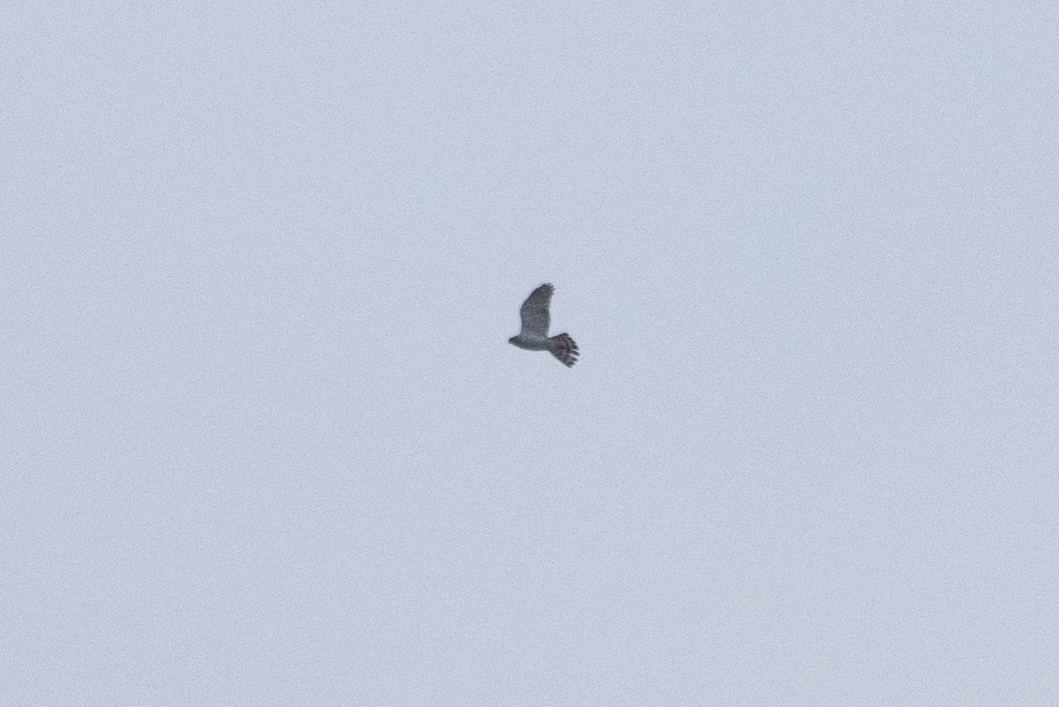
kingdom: Animalia
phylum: Chordata
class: Aves
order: Accipitriformes
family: Accipitridae
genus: Accipiter
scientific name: Accipiter gentilis
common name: Northern goshawk
